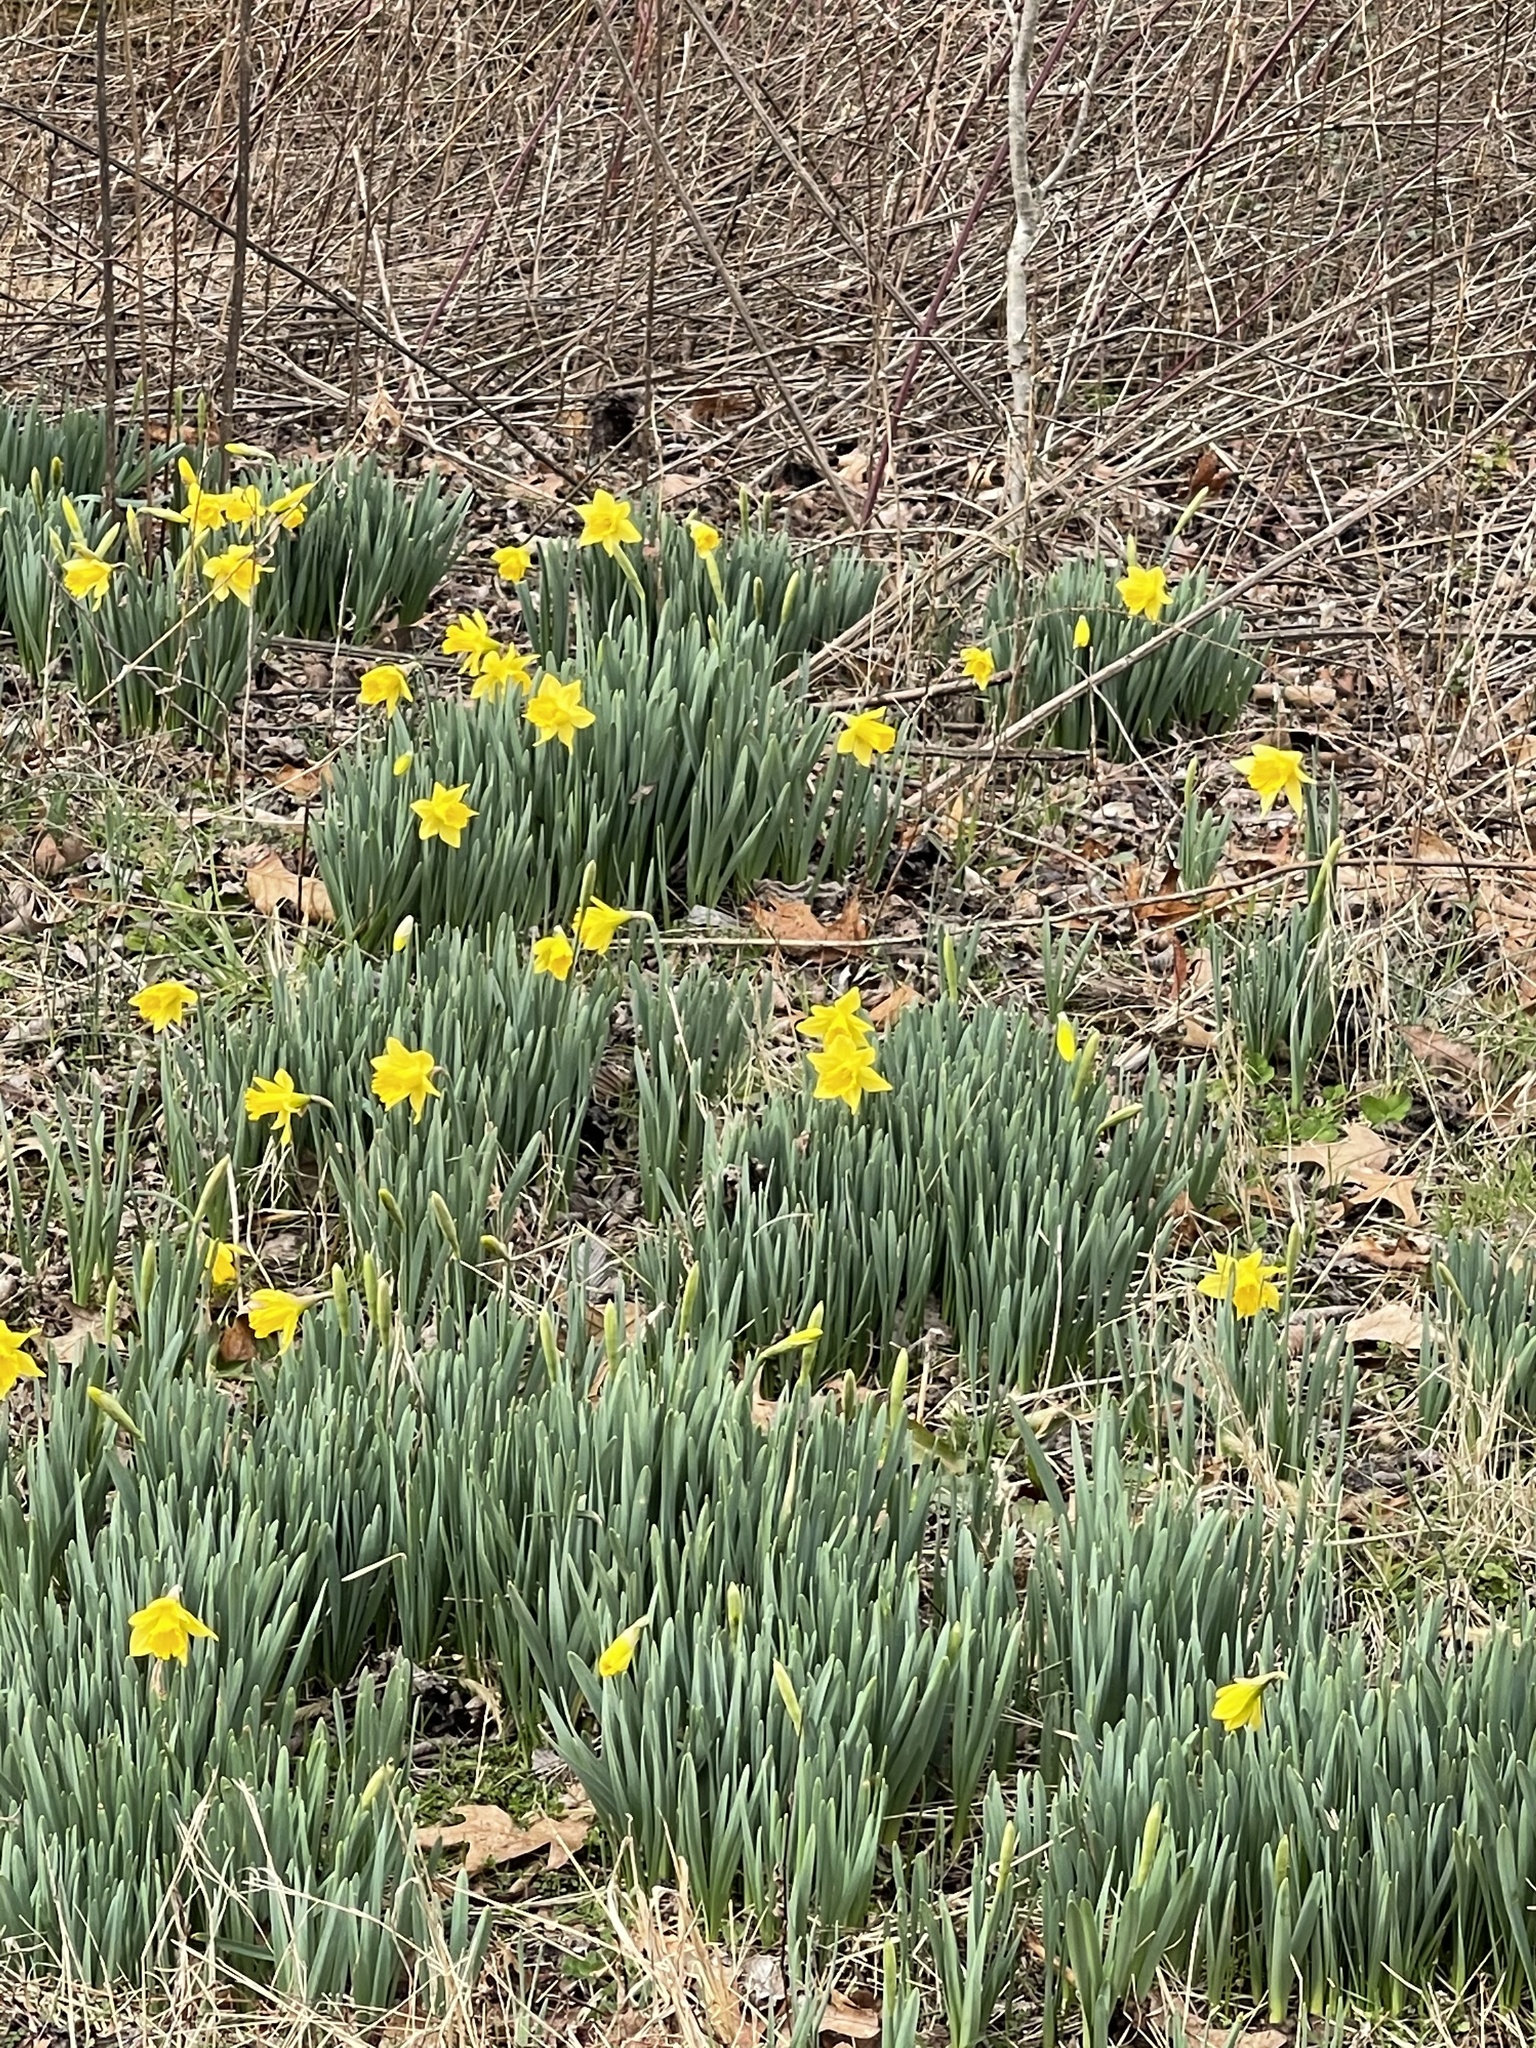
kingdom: Plantae
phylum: Tracheophyta
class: Liliopsida
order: Asparagales
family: Amaryllidaceae
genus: Narcissus
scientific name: Narcissus pseudonarcissus
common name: Daffodil
